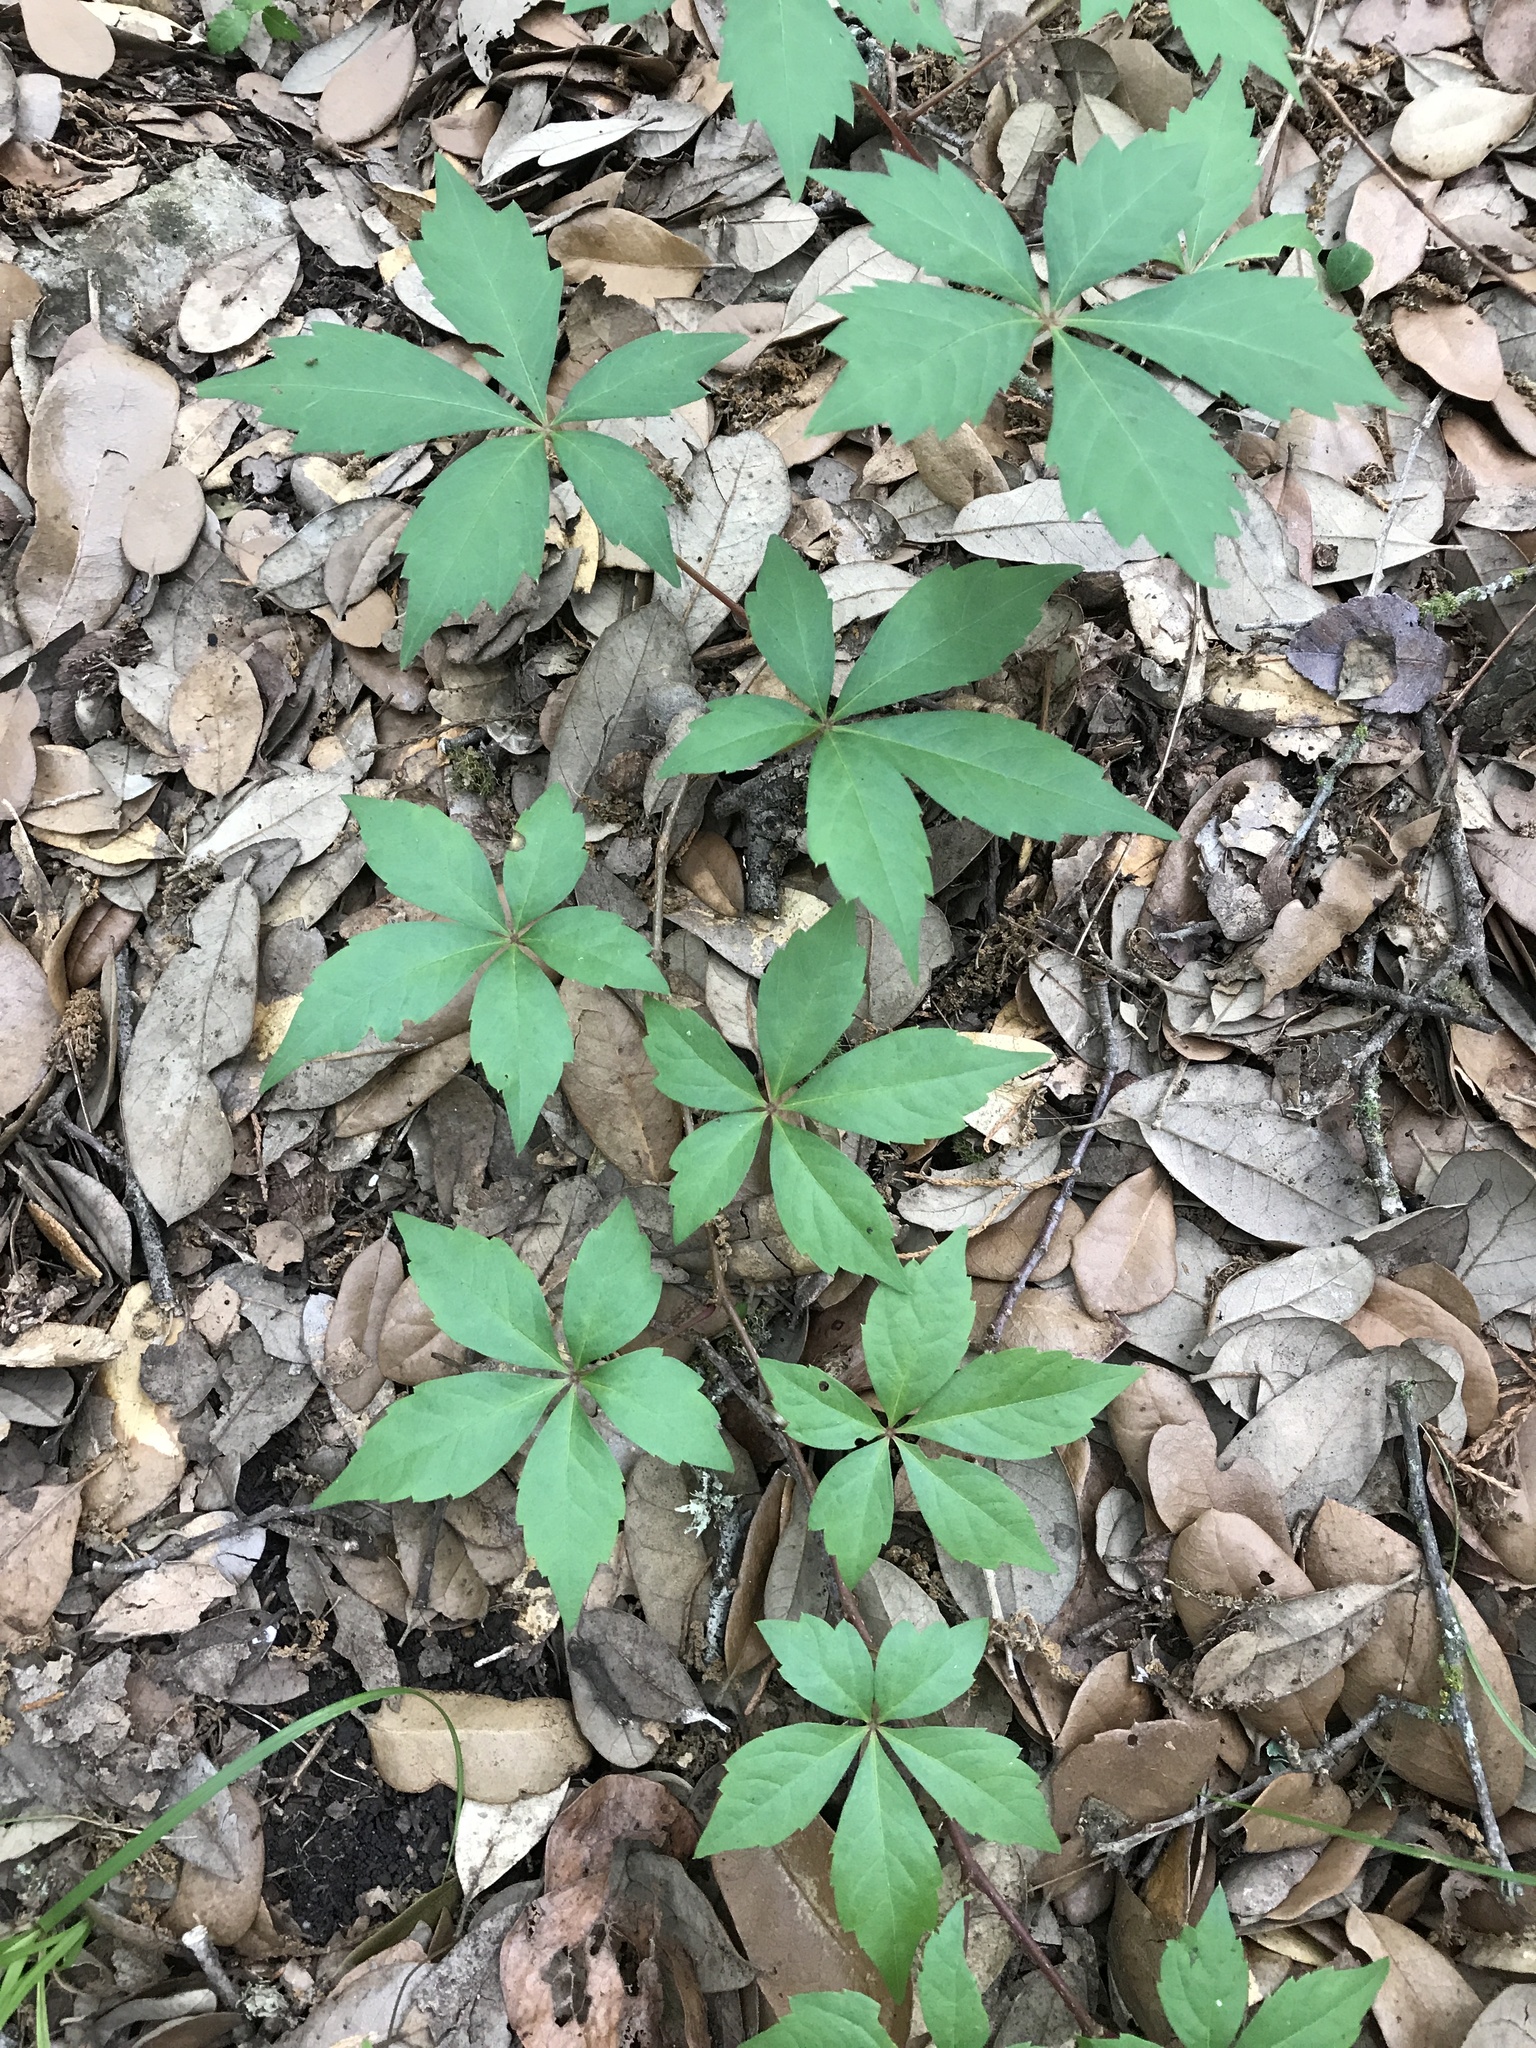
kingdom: Plantae
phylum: Tracheophyta
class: Magnoliopsida
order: Vitales
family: Vitaceae
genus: Parthenocissus
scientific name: Parthenocissus quinquefolia
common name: Virginia-creeper
